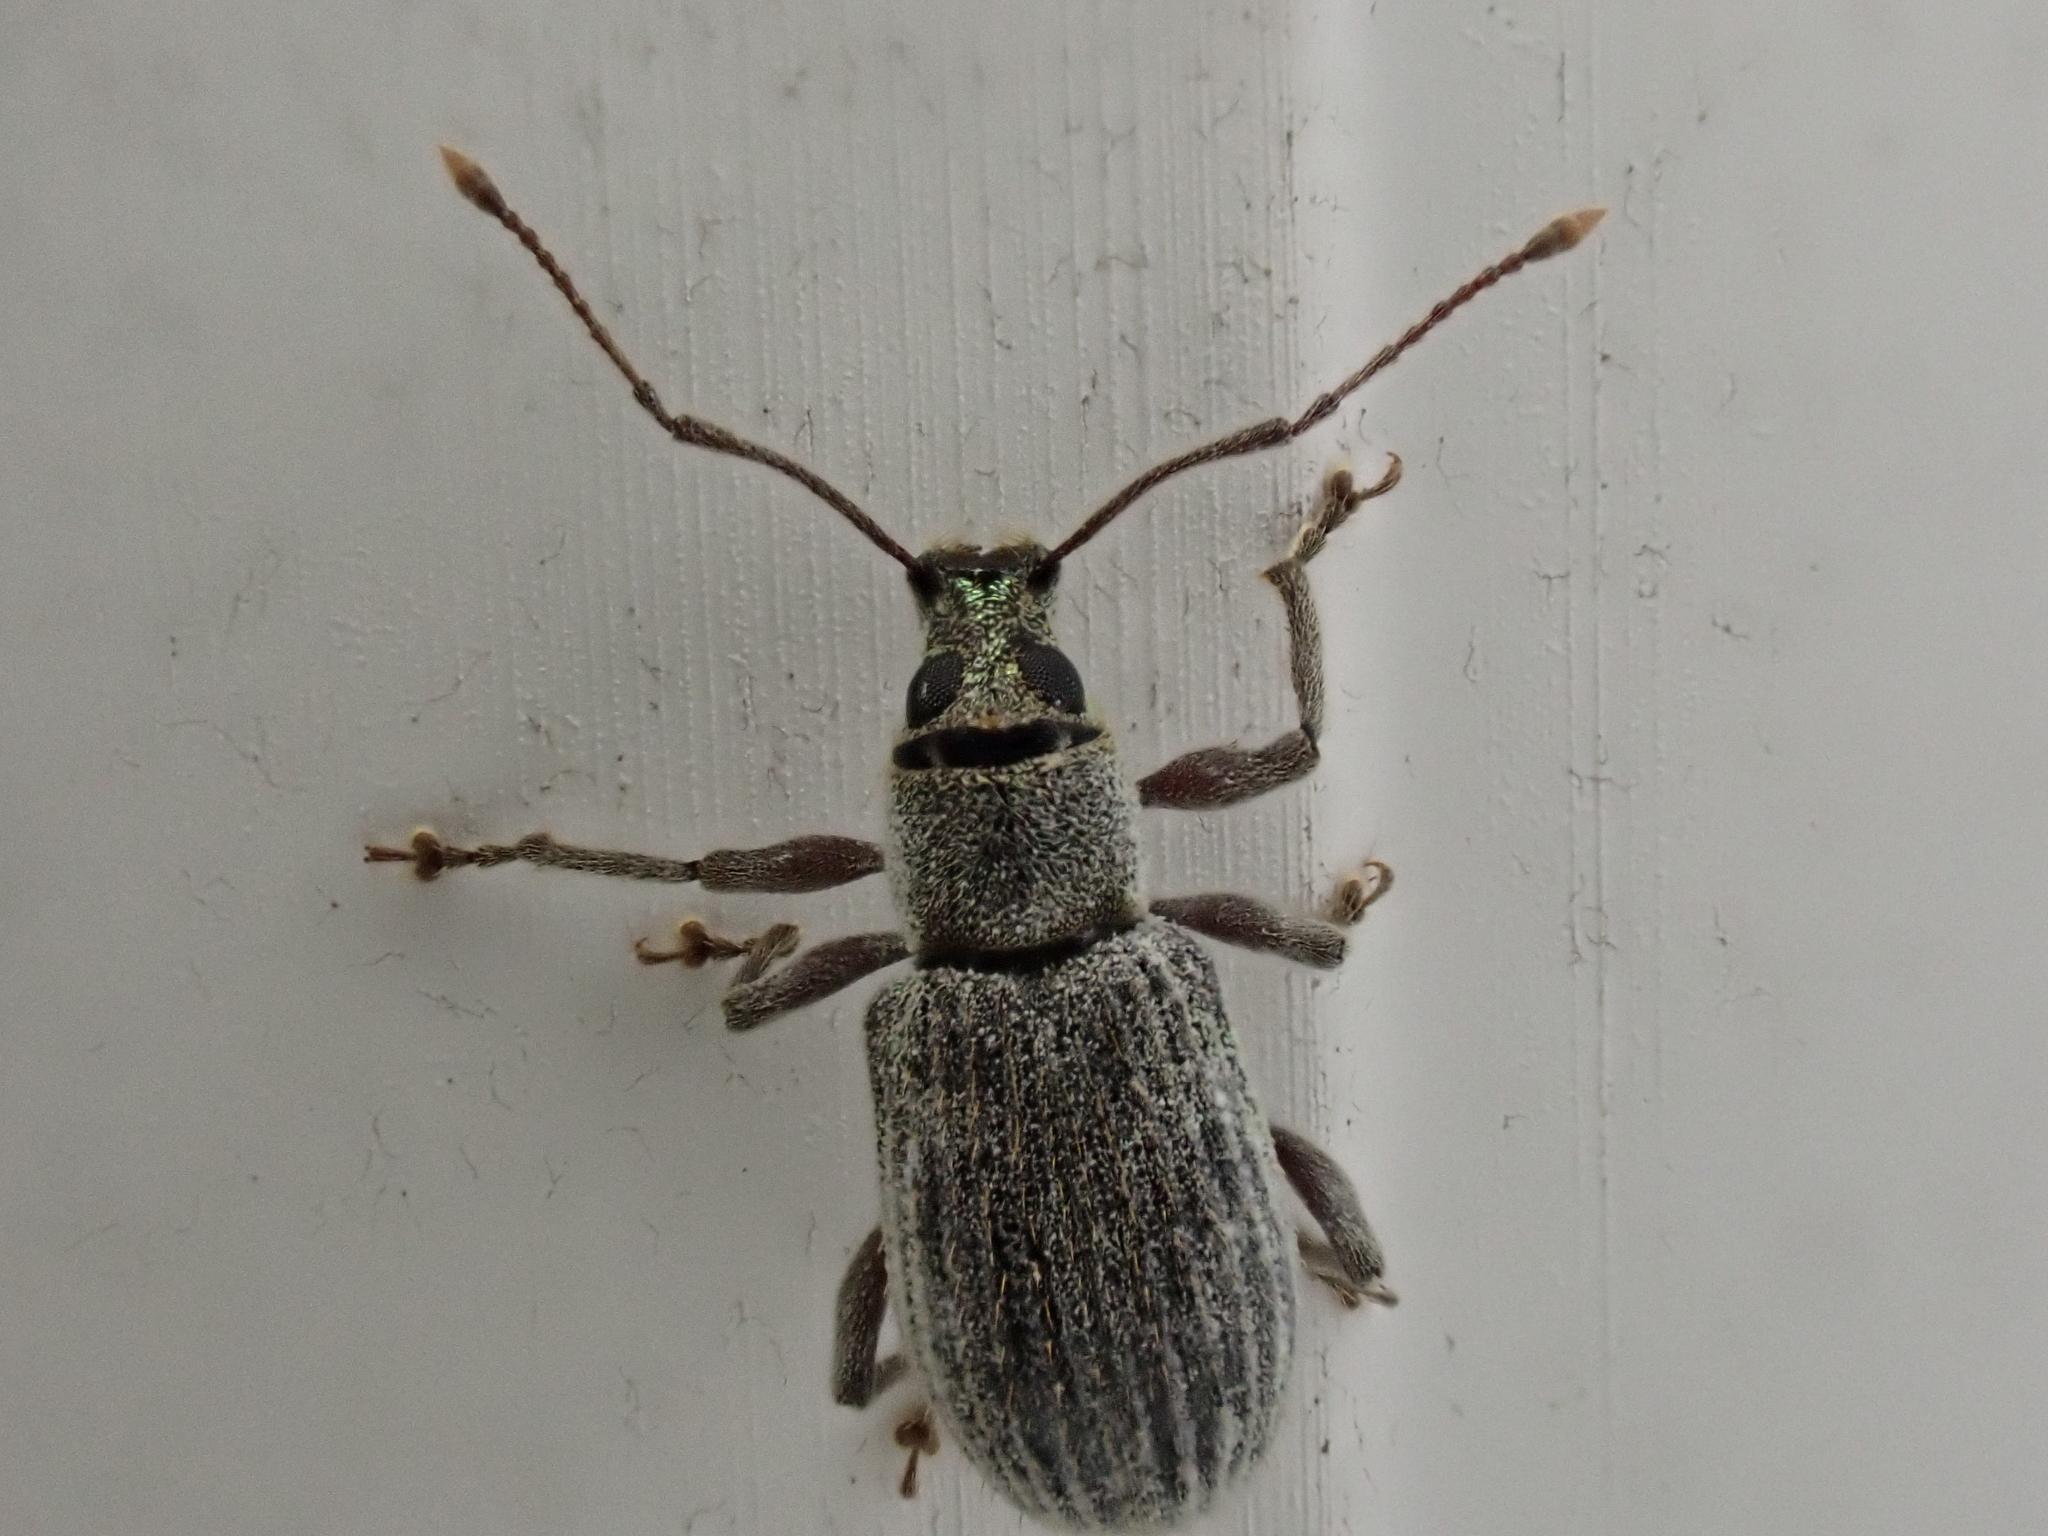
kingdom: Animalia
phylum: Arthropoda
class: Insecta
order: Coleoptera
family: Curculionidae
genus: Cyrtepistomus
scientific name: Cyrtepistomus castaneus
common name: Weevil
